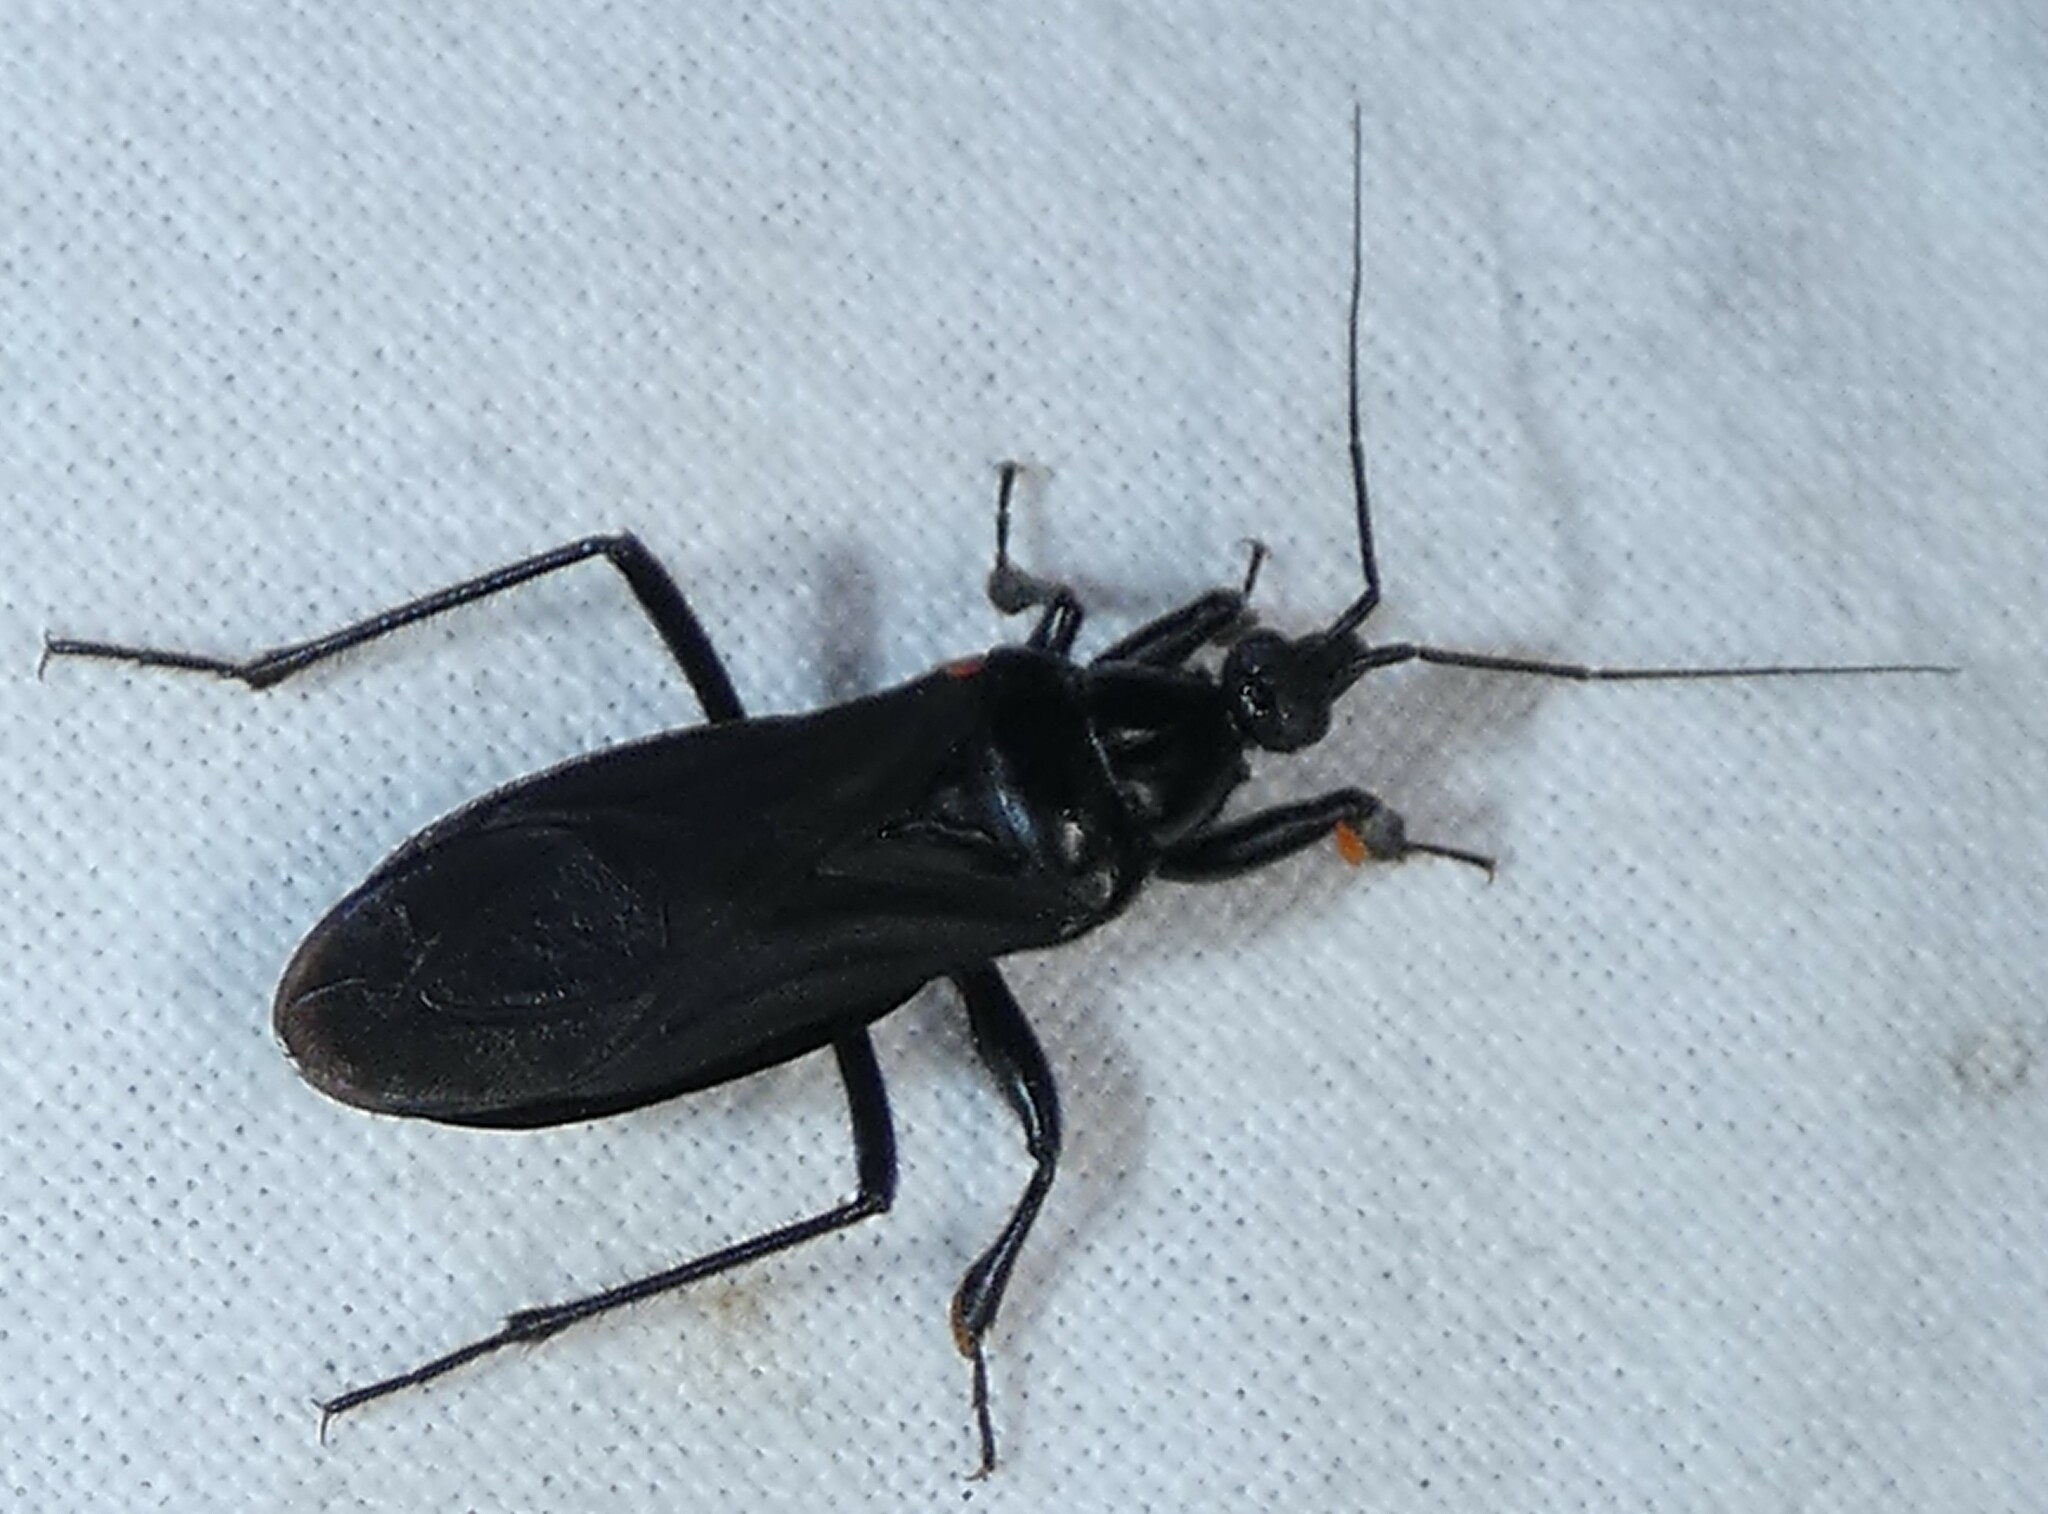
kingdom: Animalia
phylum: Arthropoda
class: Insecta
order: Hemiptera
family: Reduviidae
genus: Melanolestes
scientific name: Melanolestes picipes
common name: Assassin bug
